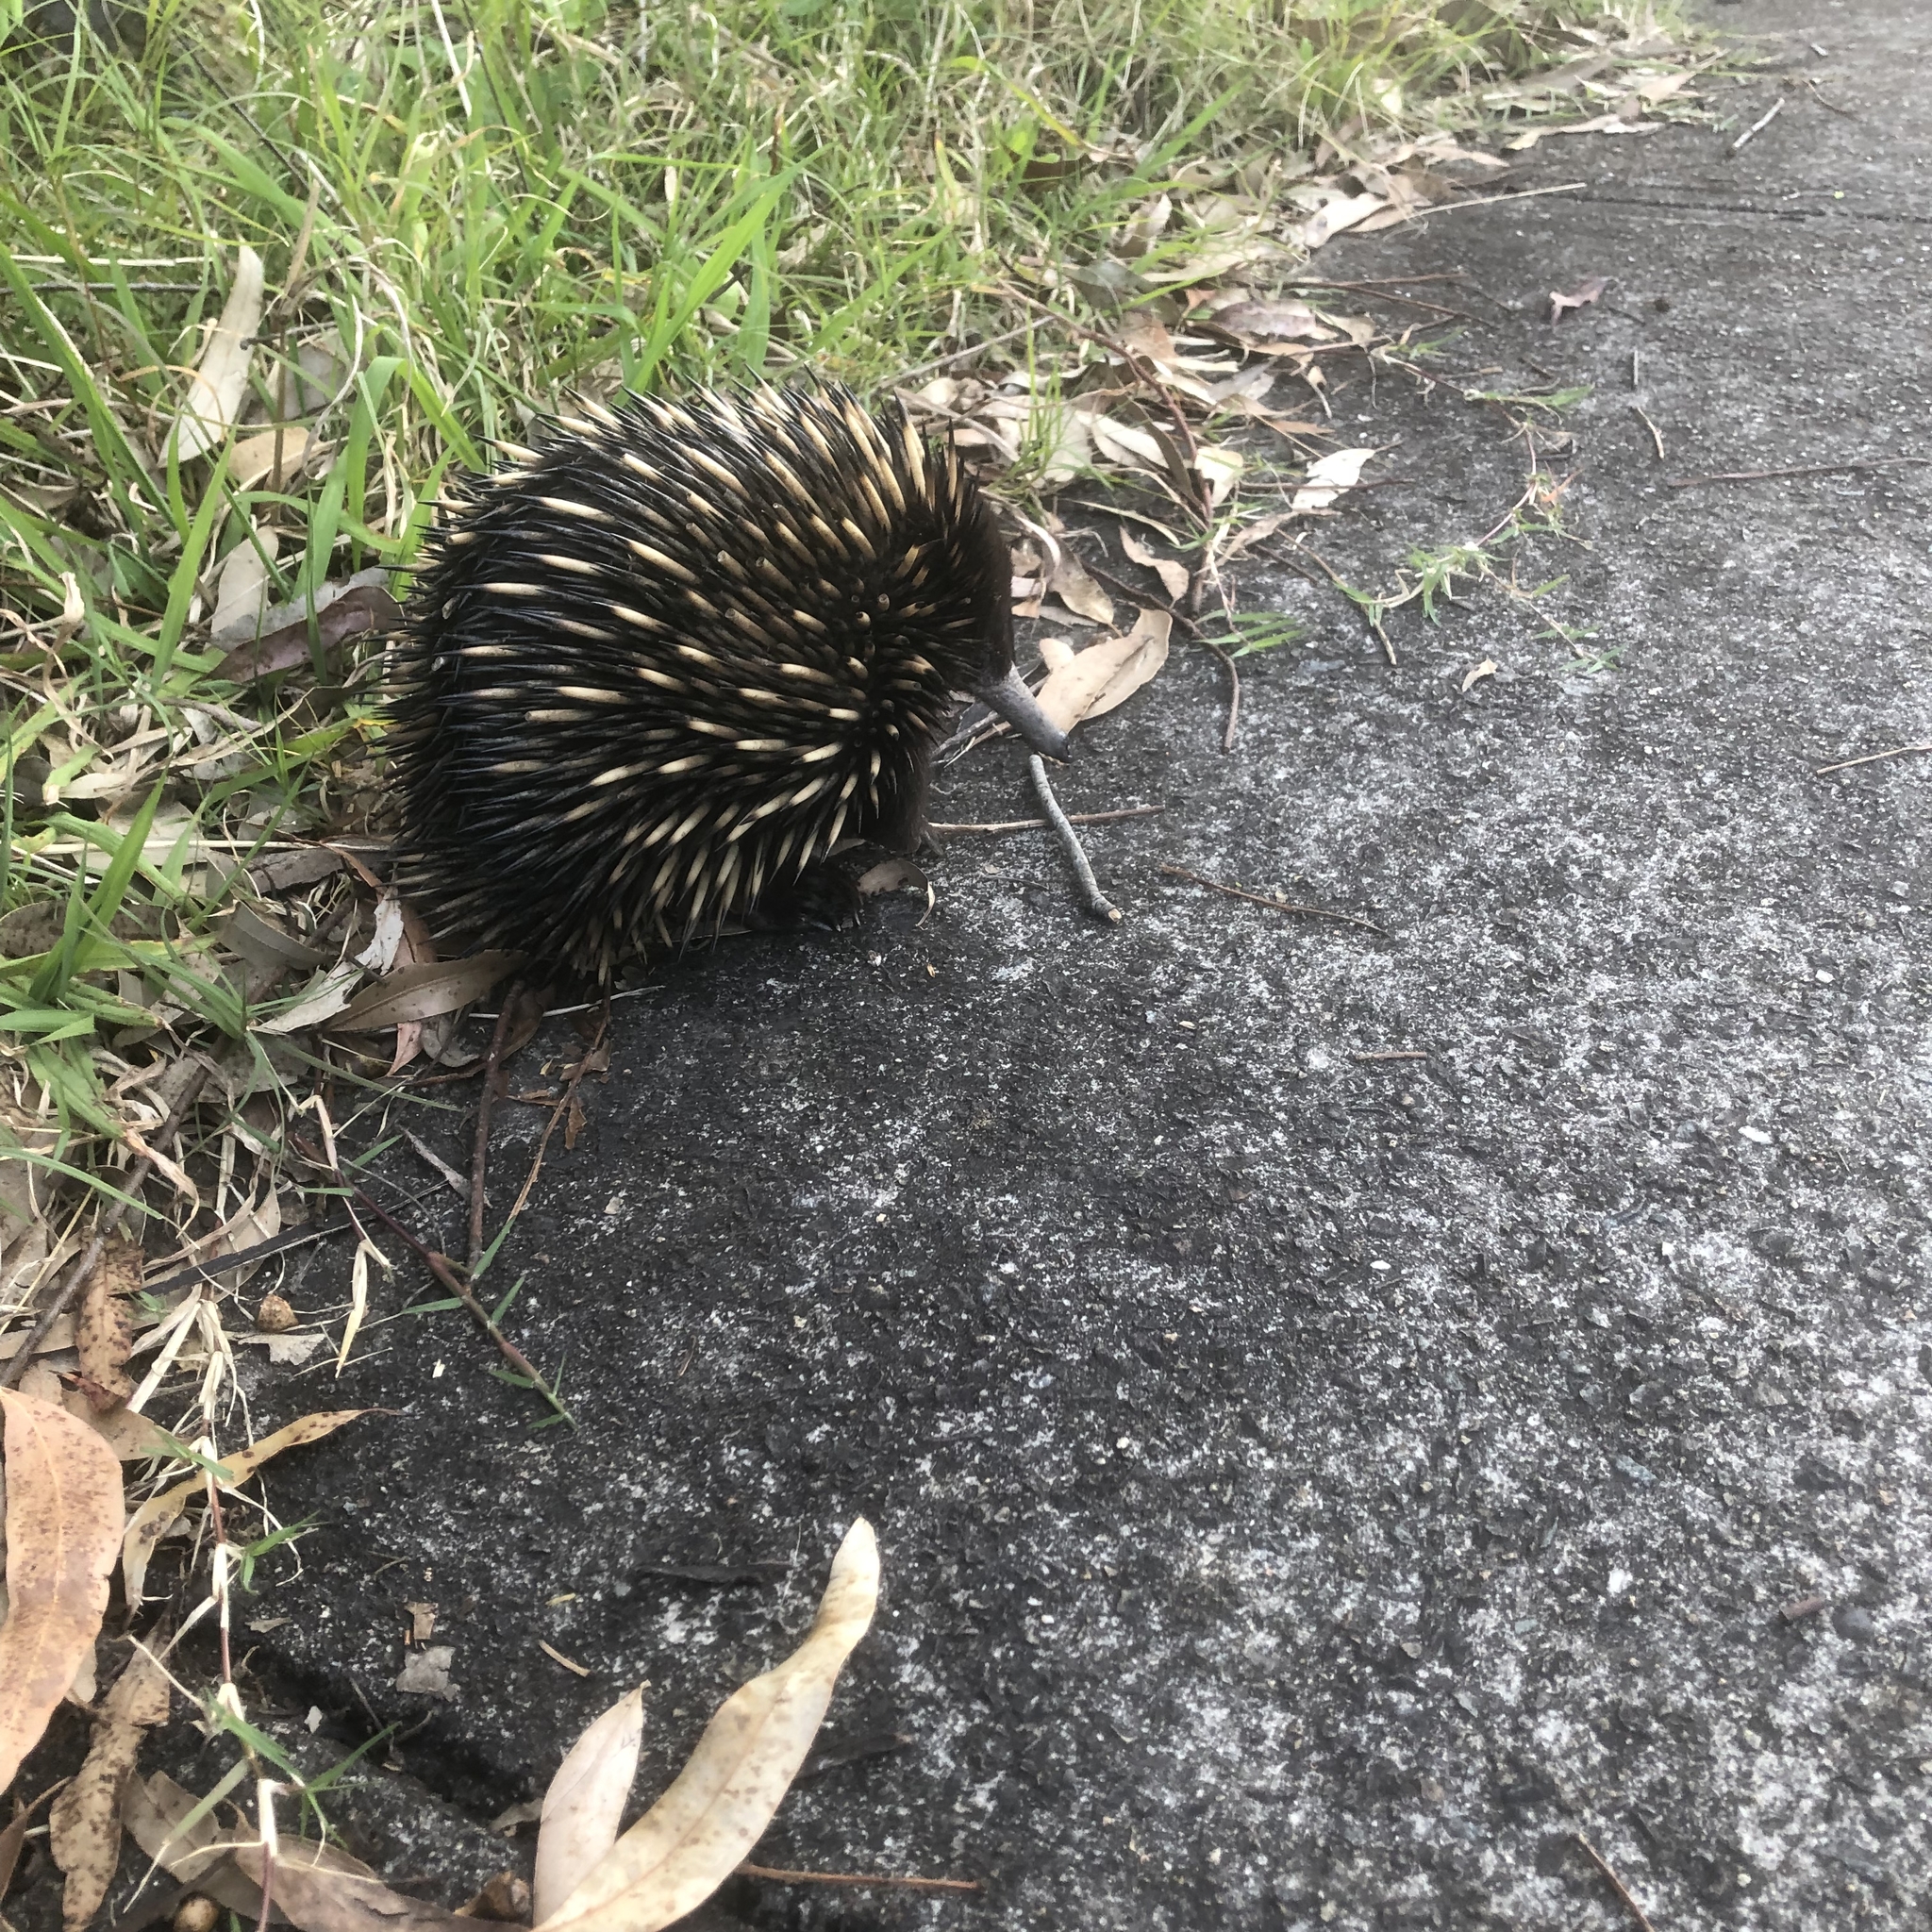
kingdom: Animalia
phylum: Chordata
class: Mammalia
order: Monotremata
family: Tachyglossidae
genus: Tachyglossus
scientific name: Tachyglossus aculeatus
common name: Short-beaked echidna
